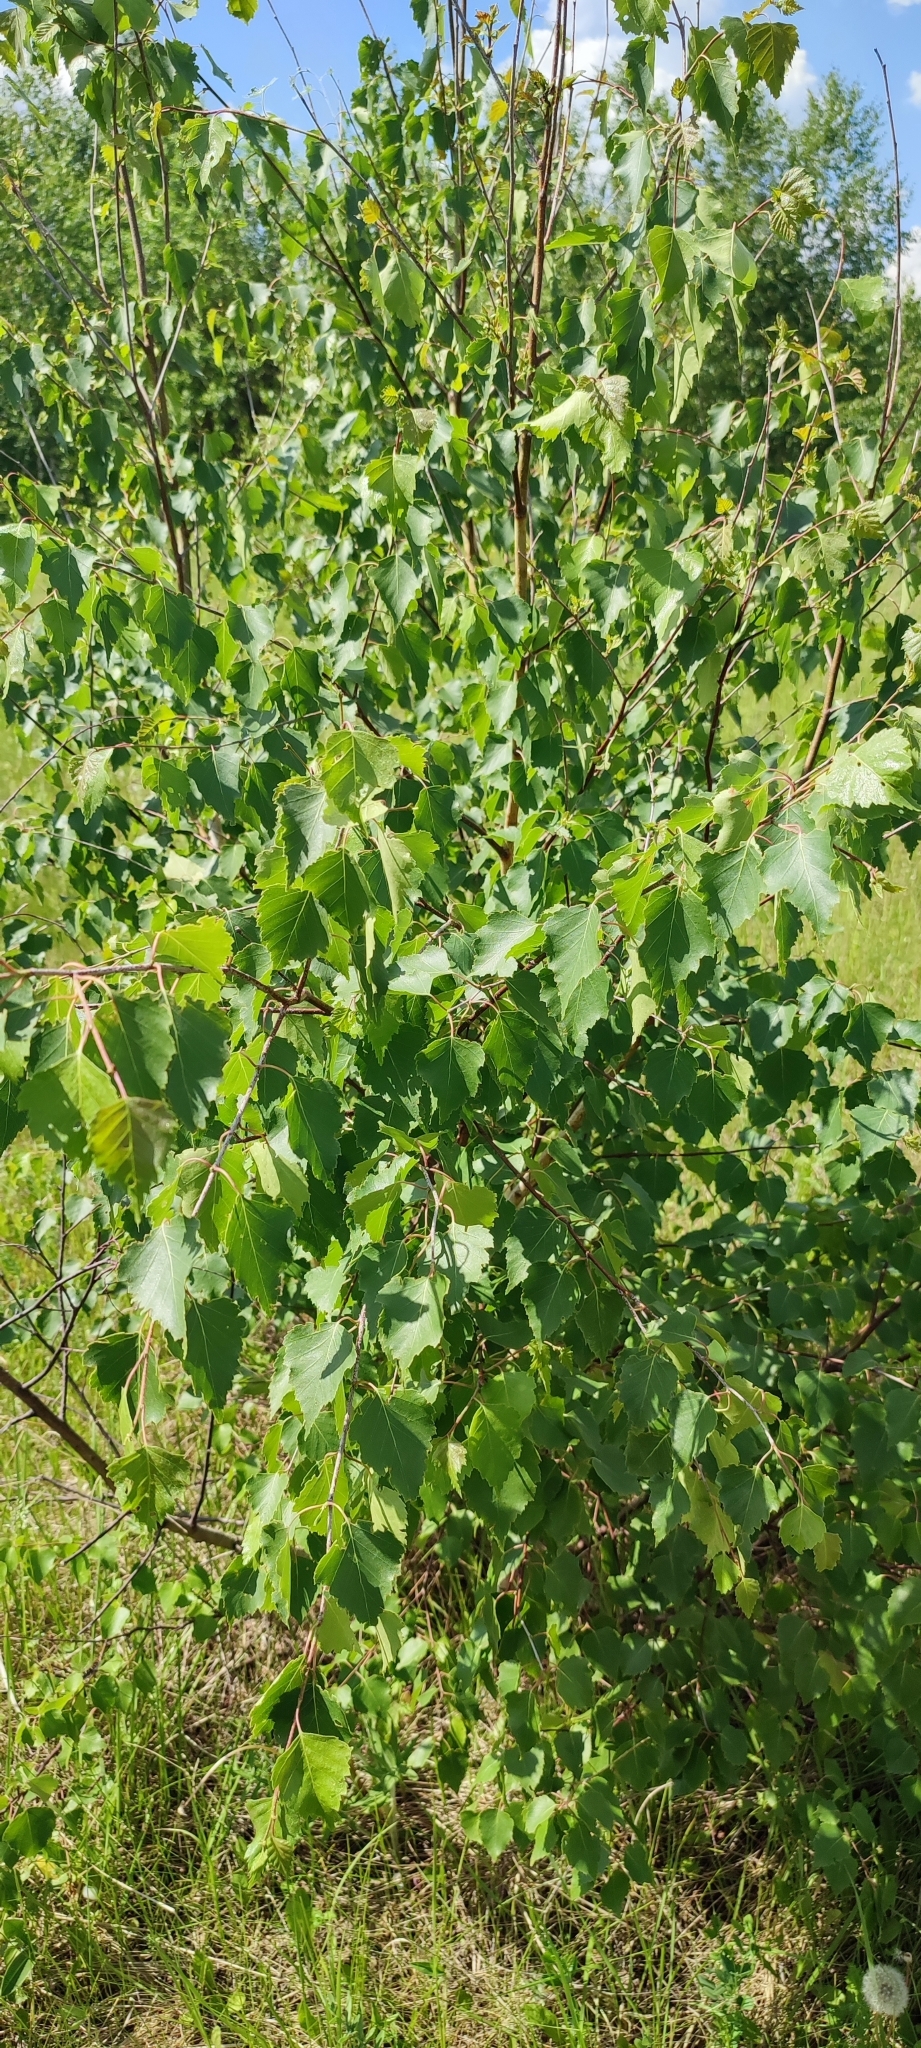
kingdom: Plantae
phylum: Tracheophyta
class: Magnoliopsida
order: Fagales
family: Betulaceae
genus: Betula
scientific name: Betula pendula
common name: Silver birch
